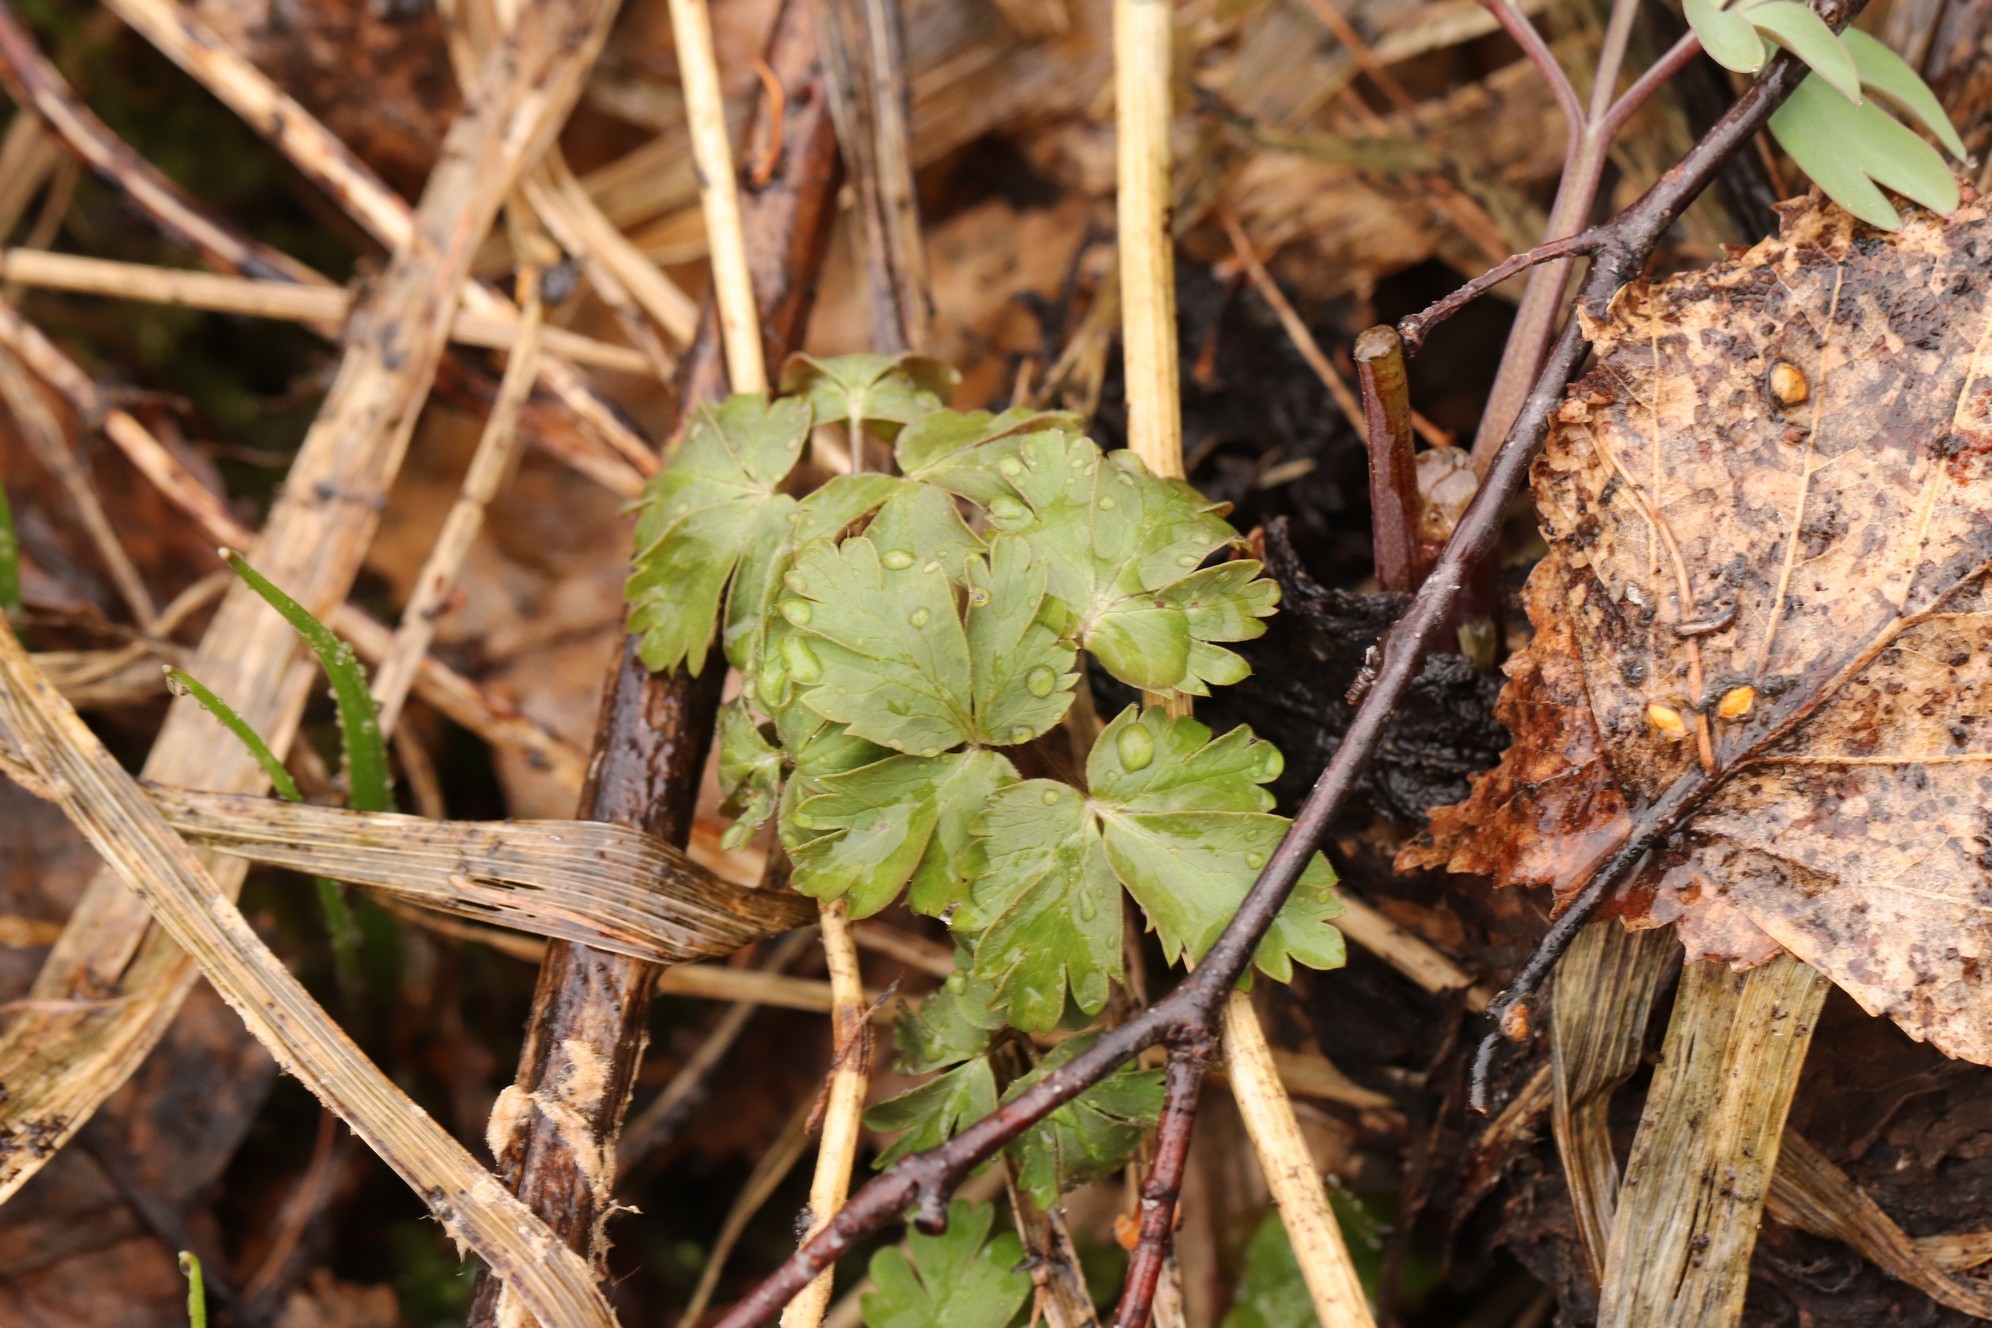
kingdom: Plantae
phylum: Tracheophyta
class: Magnoliopsida
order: Dipsacales
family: Viburnaceae
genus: Adoxa
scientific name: Adoxa moschatellina
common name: Moschatel
